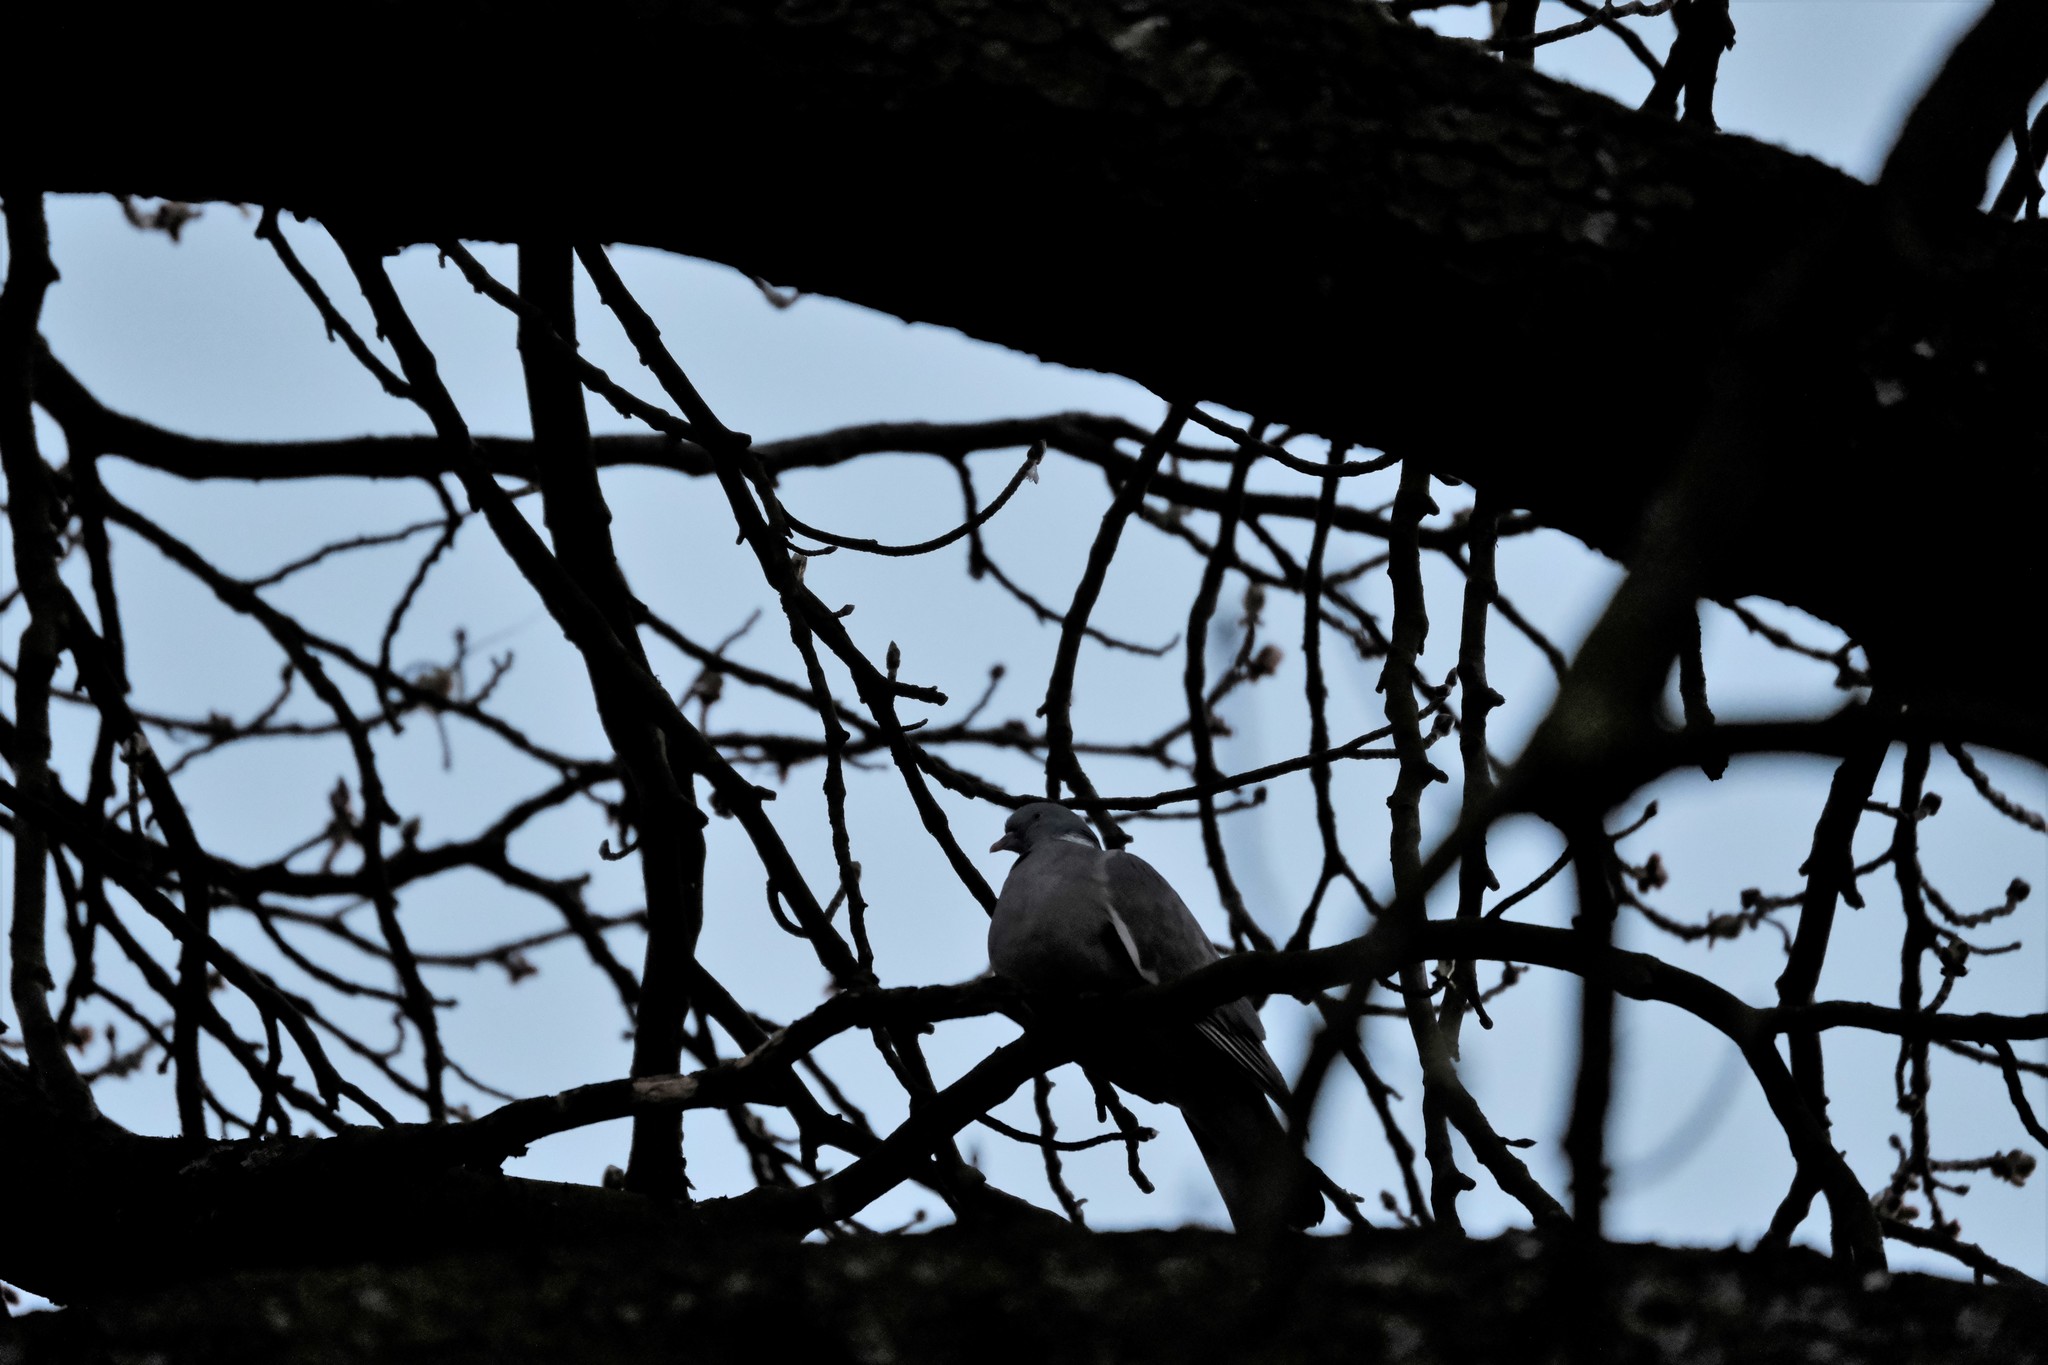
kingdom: Animalia
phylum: Chordata
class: Aves
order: Columbiformes
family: Columbidae
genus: Columba
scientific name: Columba palumbus
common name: Common wood pigeon
